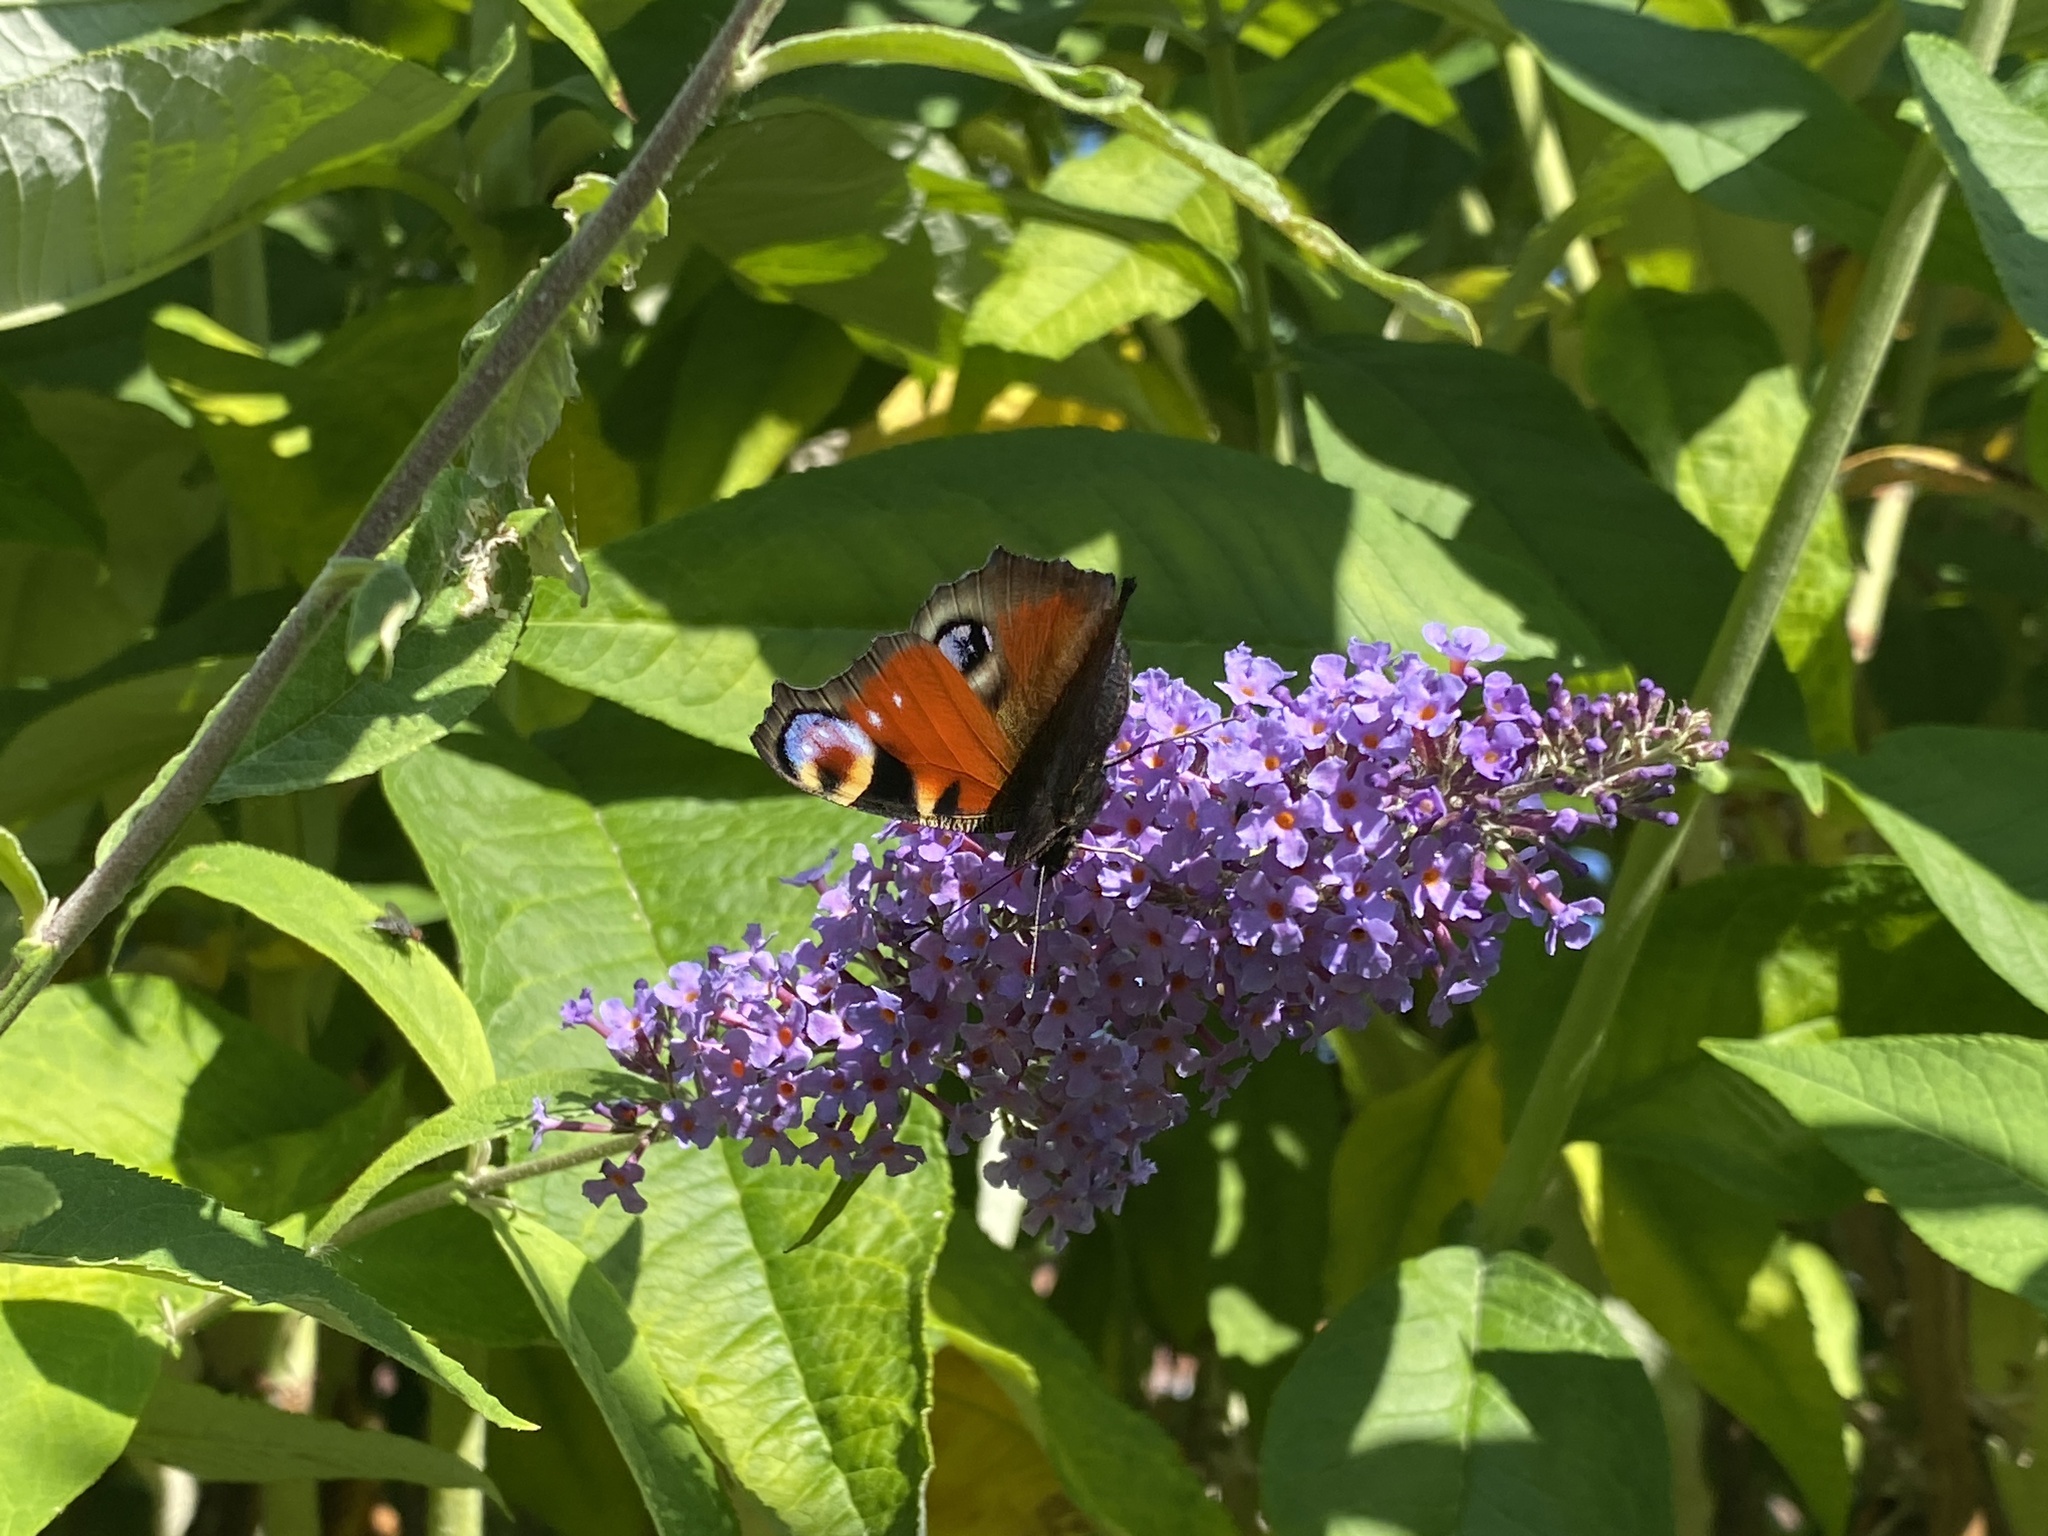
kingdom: Animalia
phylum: Arthropoda
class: Insecta
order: Lepidoptera
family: Nymphalidae
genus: Aglais
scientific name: Aglais io
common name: Peacock
